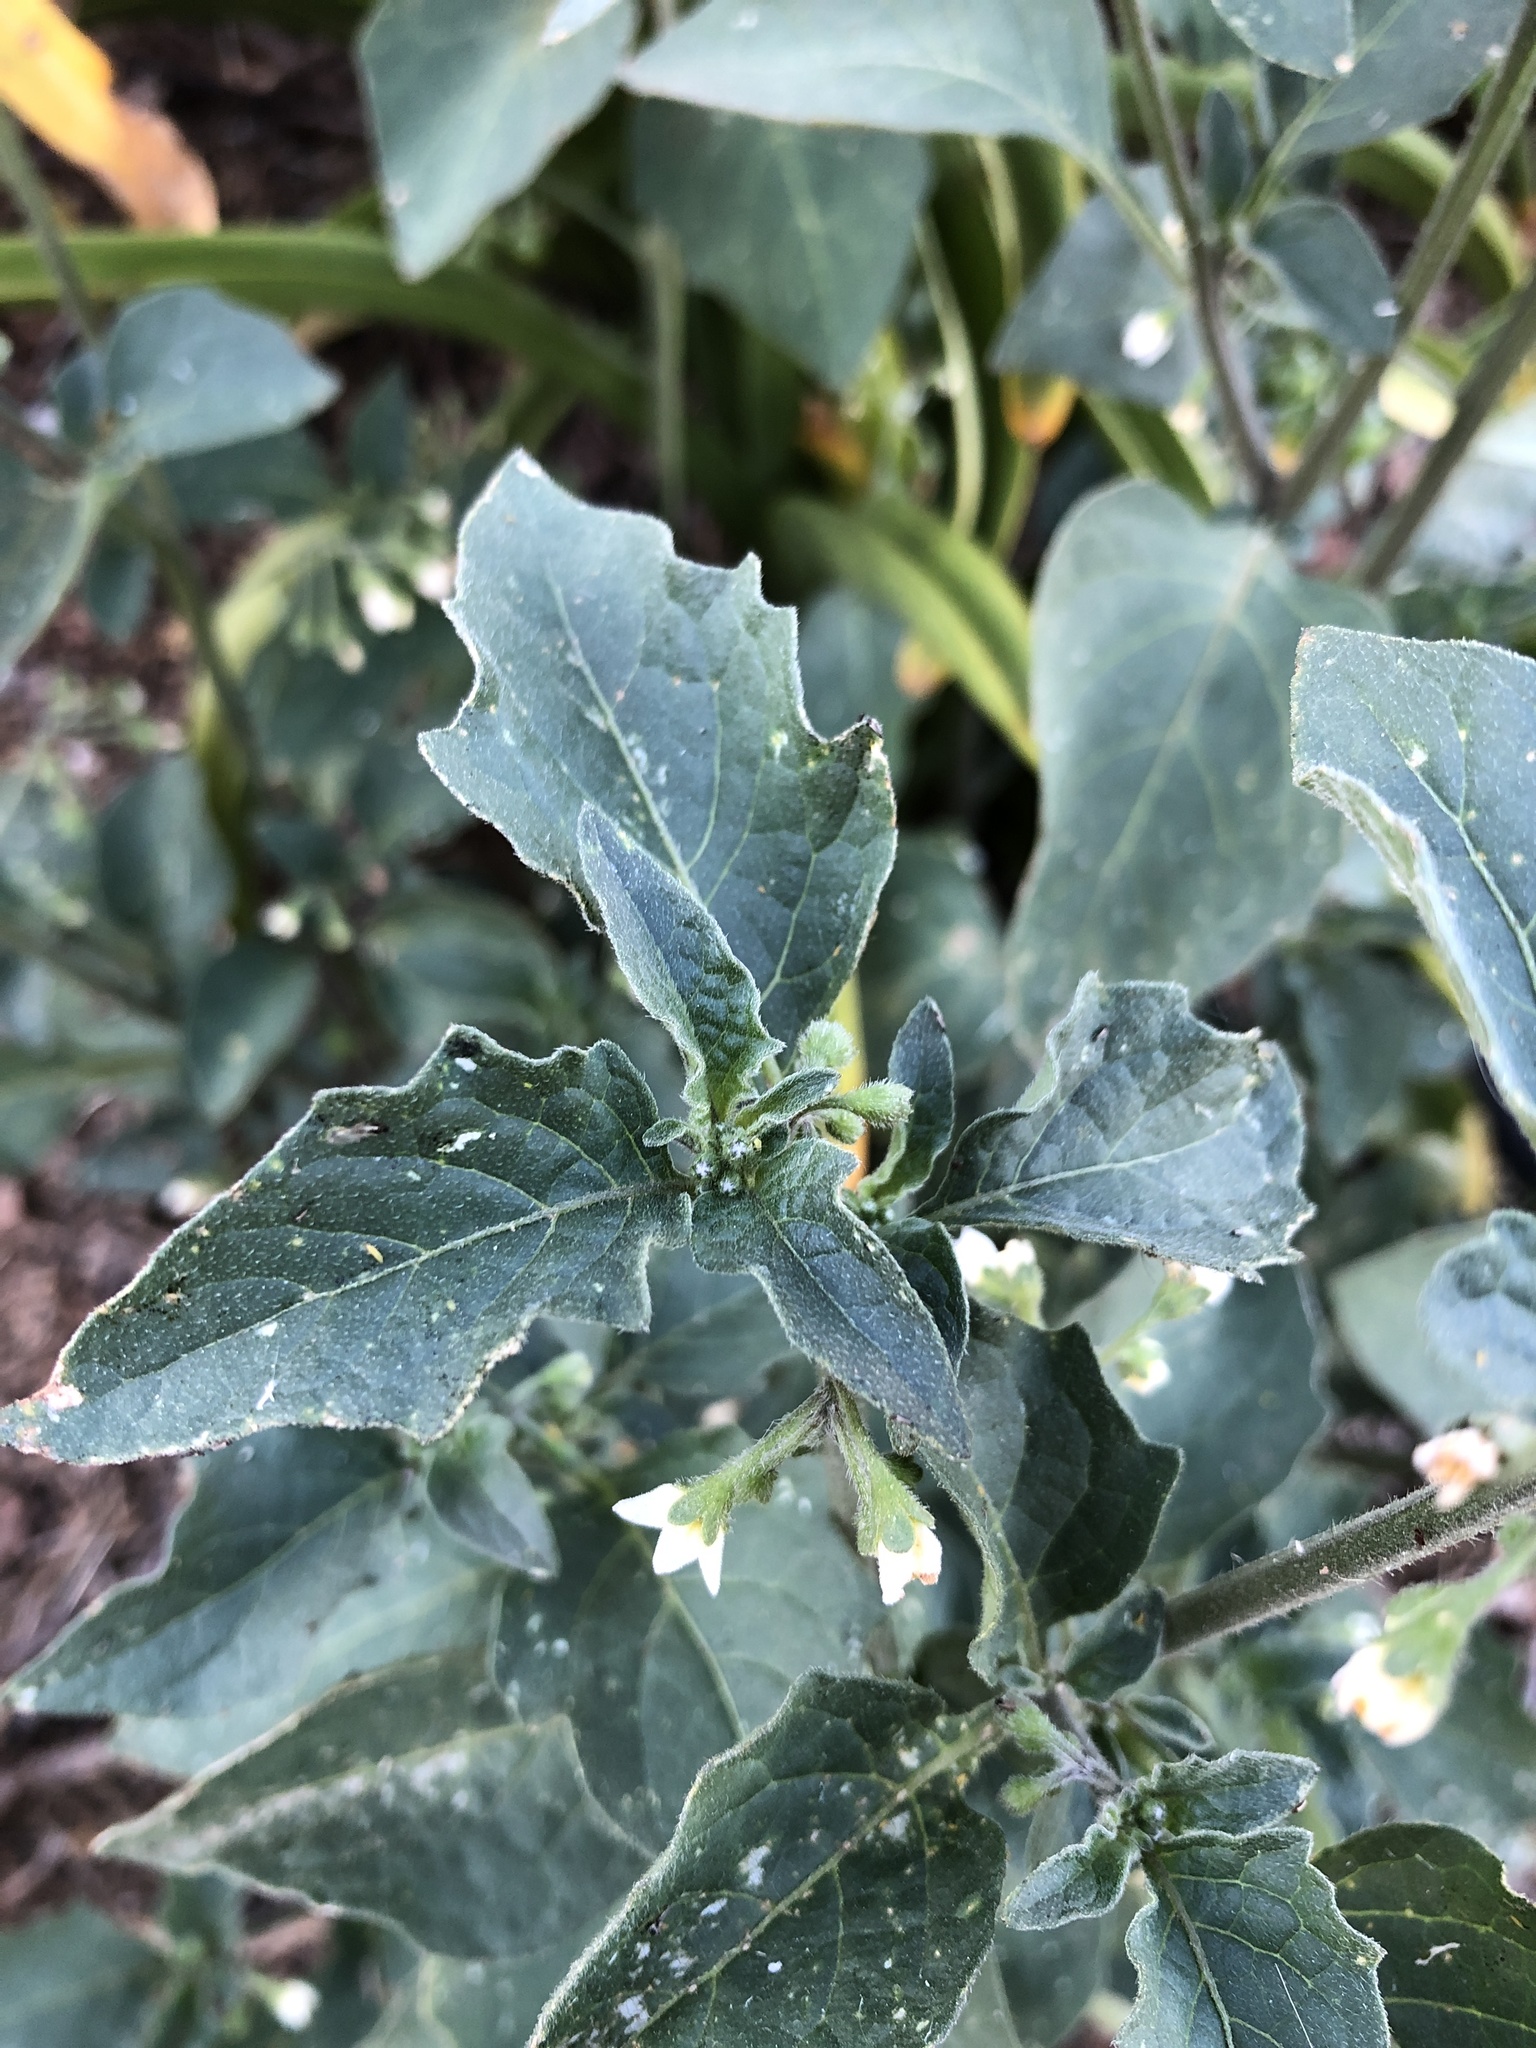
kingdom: Plantae
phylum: Tracheophyta
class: Magnoliopsida
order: Solanales
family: Solanaceae
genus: Solanum
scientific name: Solanum nigrum
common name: Black nightshade
